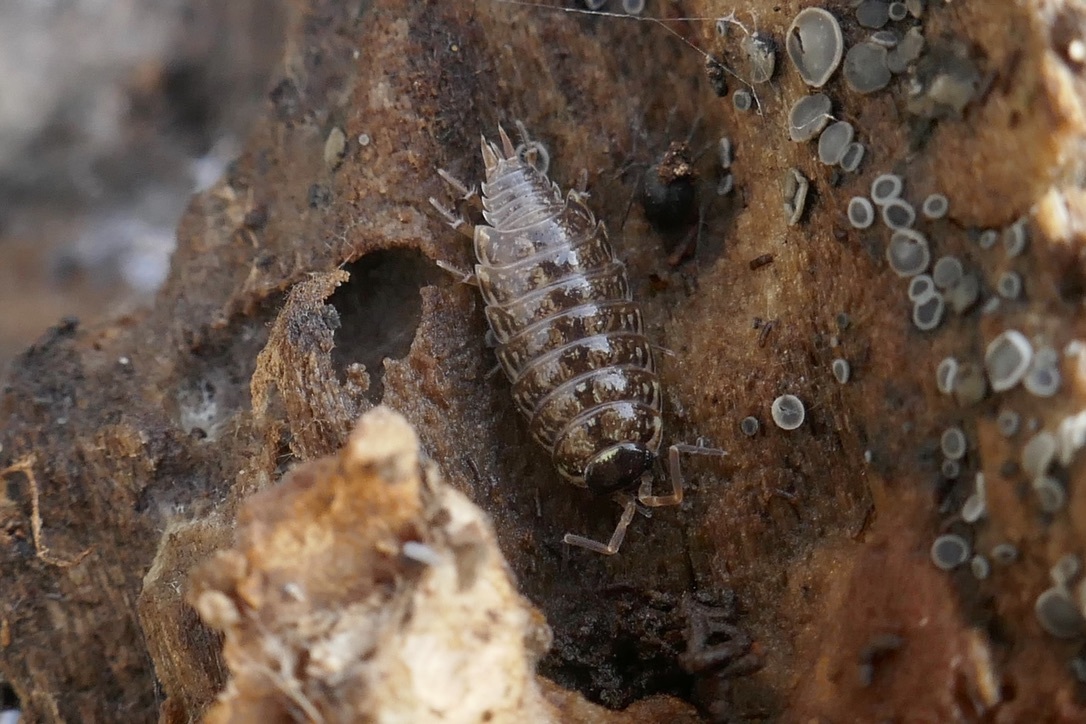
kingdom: Animalia
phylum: Arthropoda
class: Malacostraca
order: Isopoda
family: Philosciidae
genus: Philoscia
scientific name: Philoscia muscorum
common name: Common striped woodlouse
